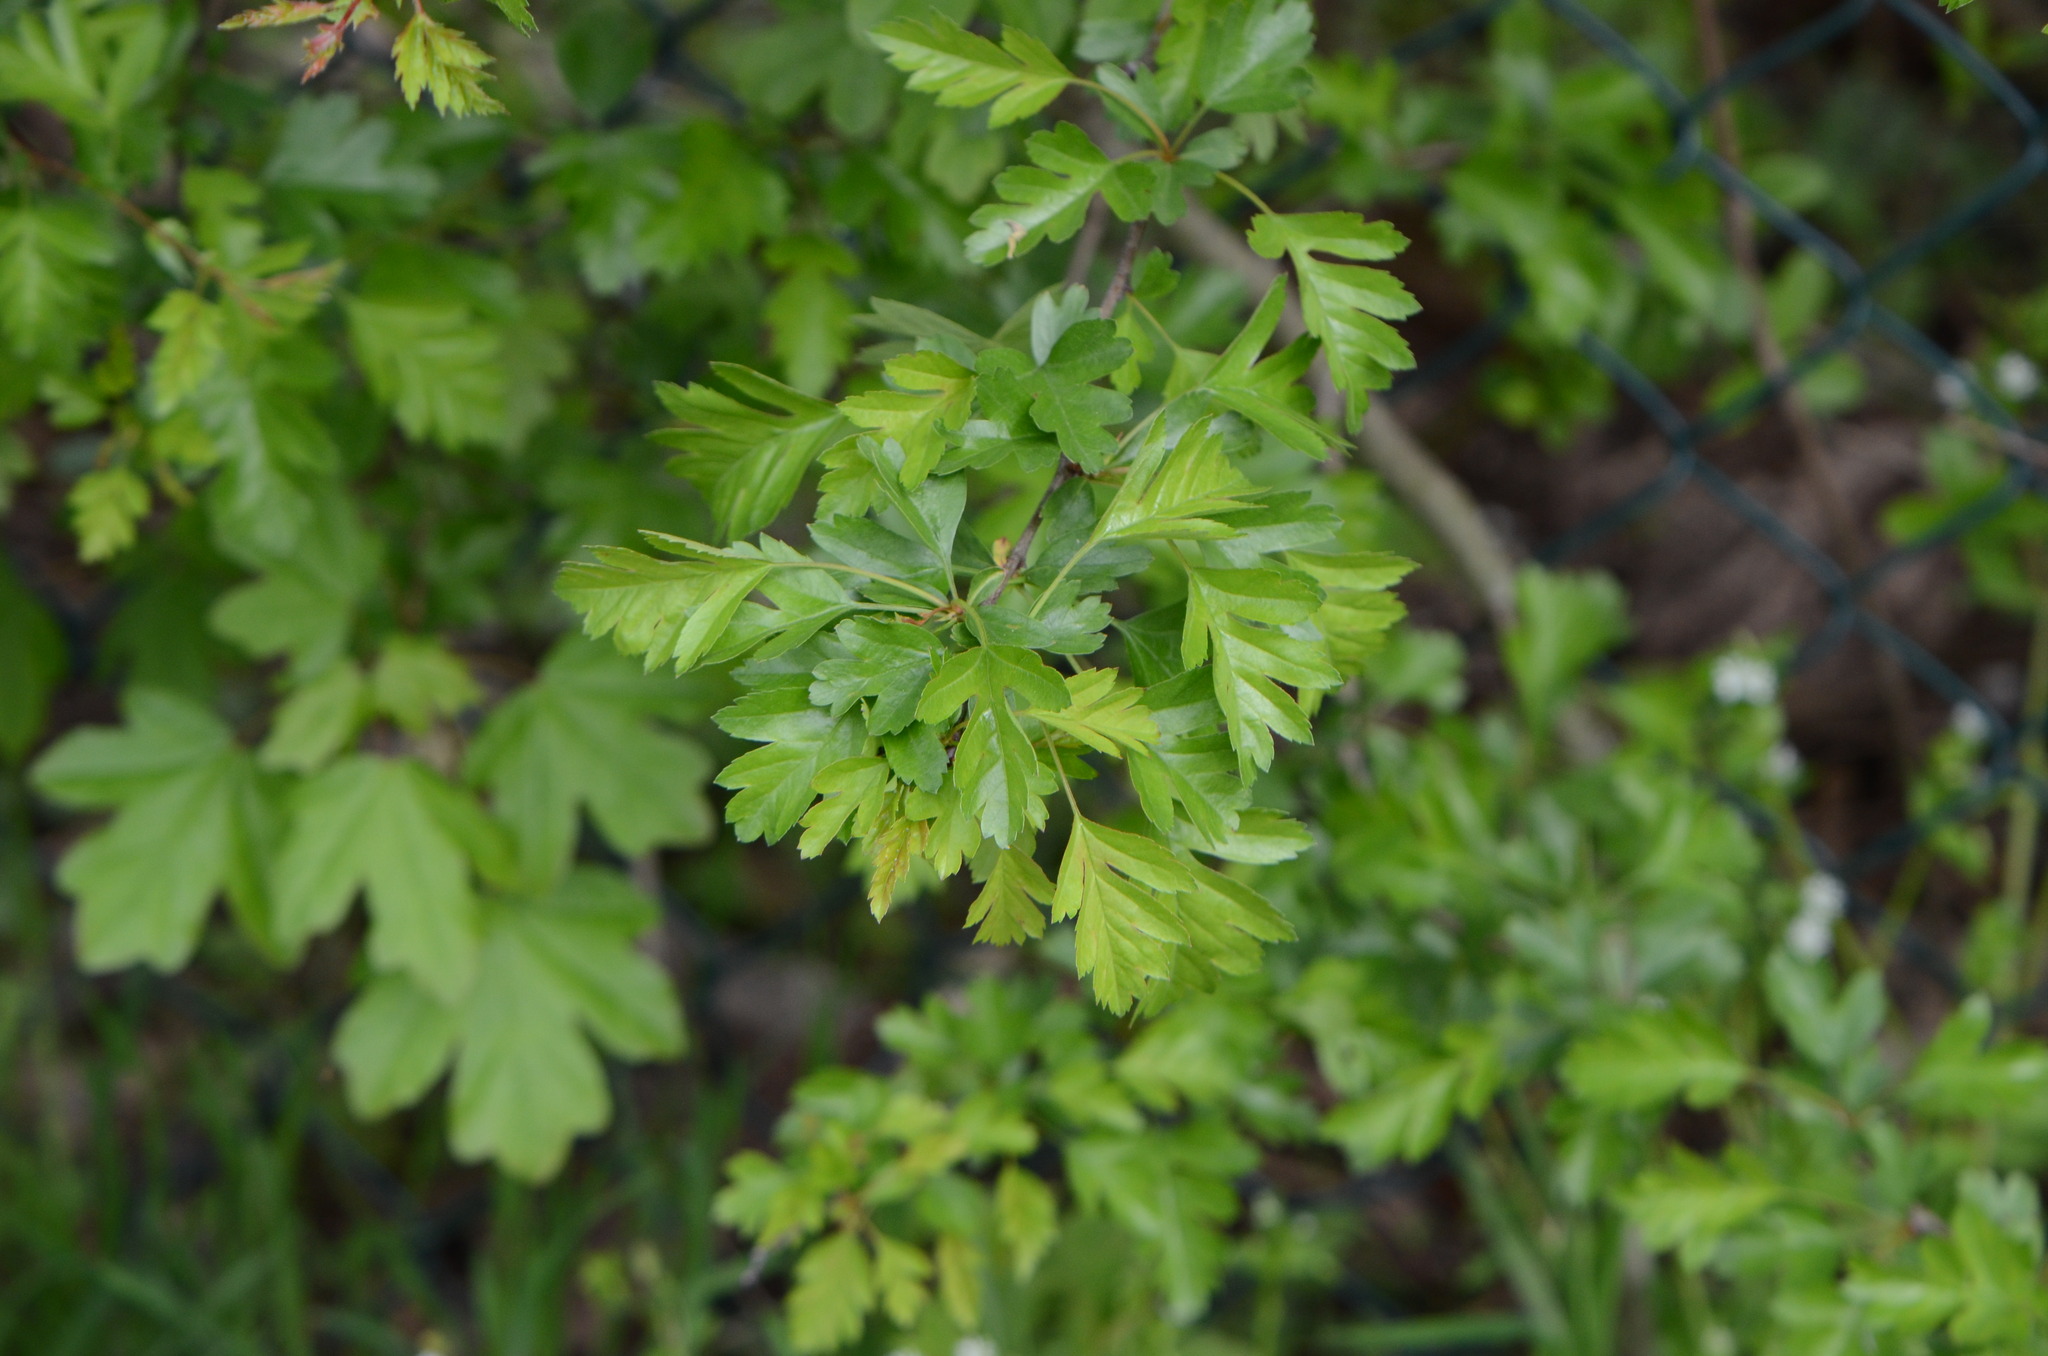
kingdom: Plantae
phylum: Tracheophyta
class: Magnoliopsida
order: Rosales
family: Rosaceae
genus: Crataegus
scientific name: Crataegus monogyna
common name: Hawthorn
